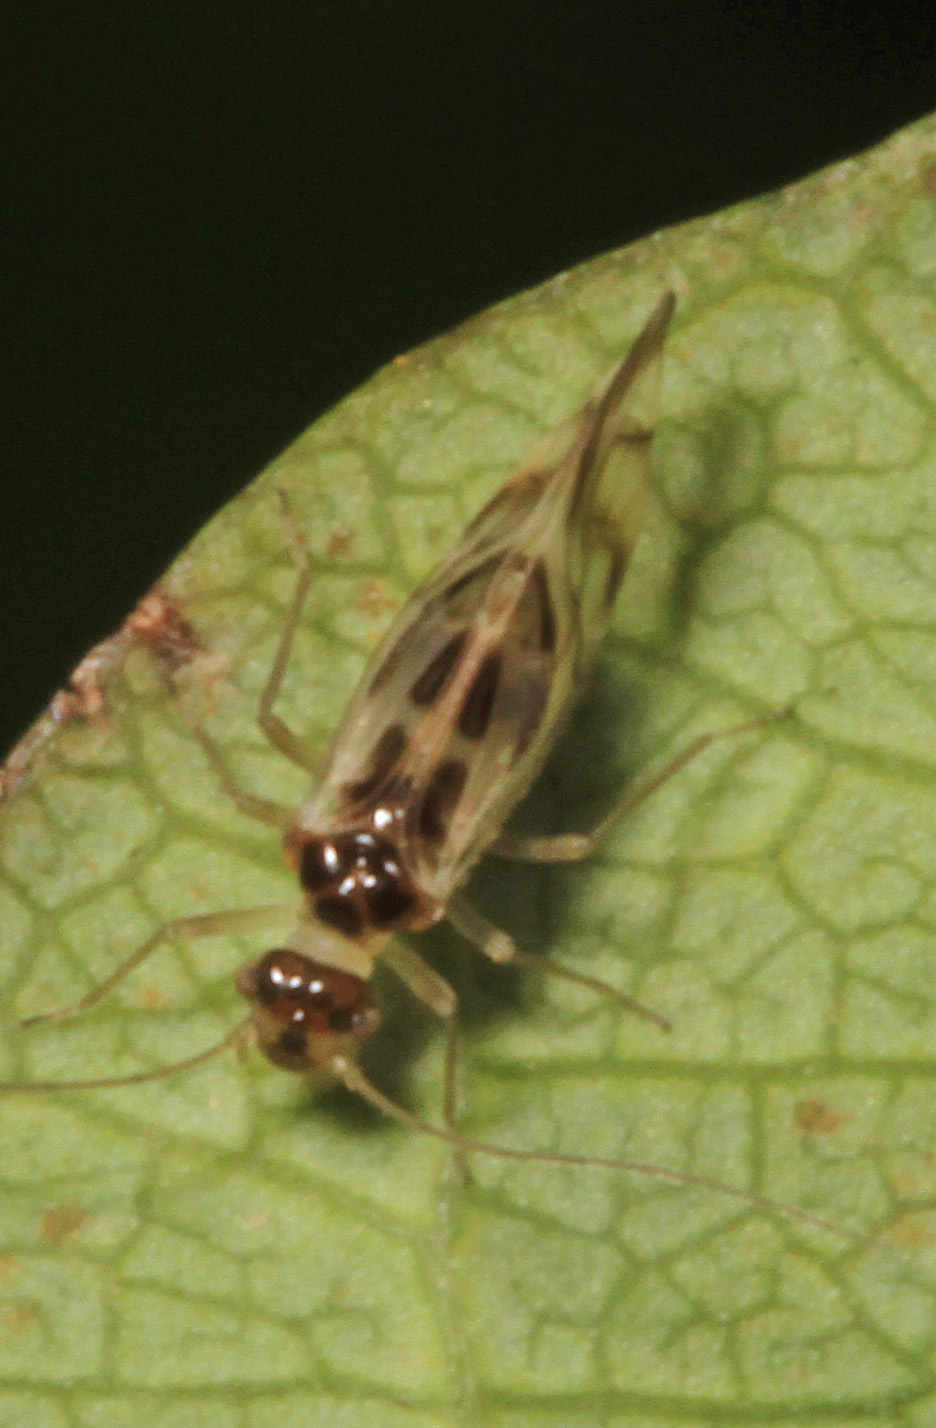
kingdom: Animalia
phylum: Arthropoda
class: Insecta
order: Psocodea
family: Stenopsocidae
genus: Graphopsocus
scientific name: Graphopsocus cruciatus
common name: Lizard bark louse
